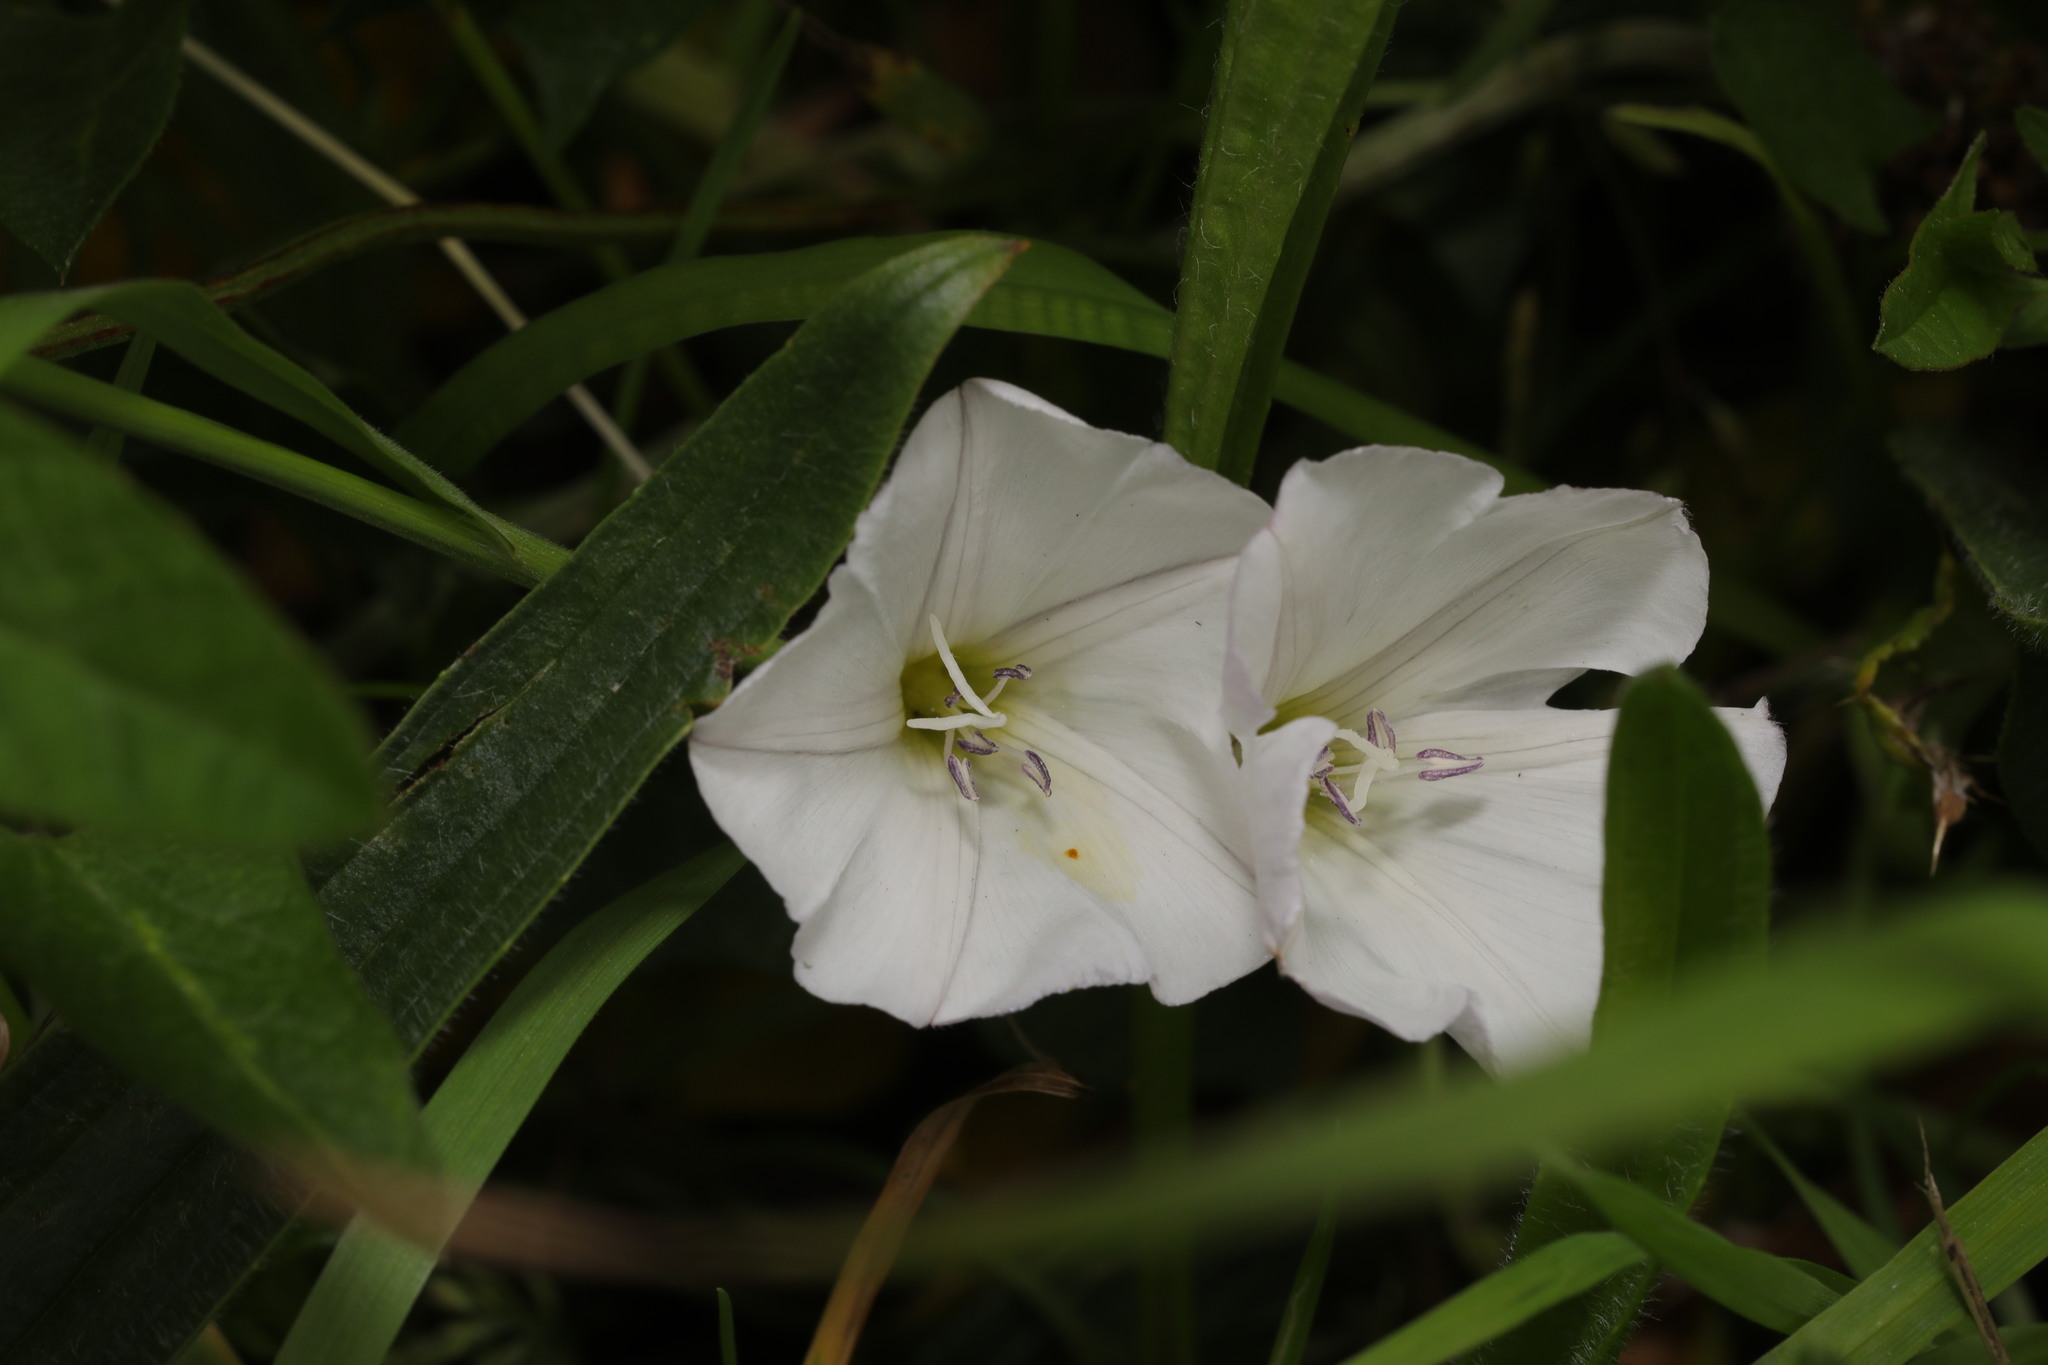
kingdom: Plantae
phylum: Tracheophyta
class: Magnoliopsida
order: Solanales
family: Convolvulaceae
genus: Convolvulus
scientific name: Convolvulus arvensis
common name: Field bindweed
